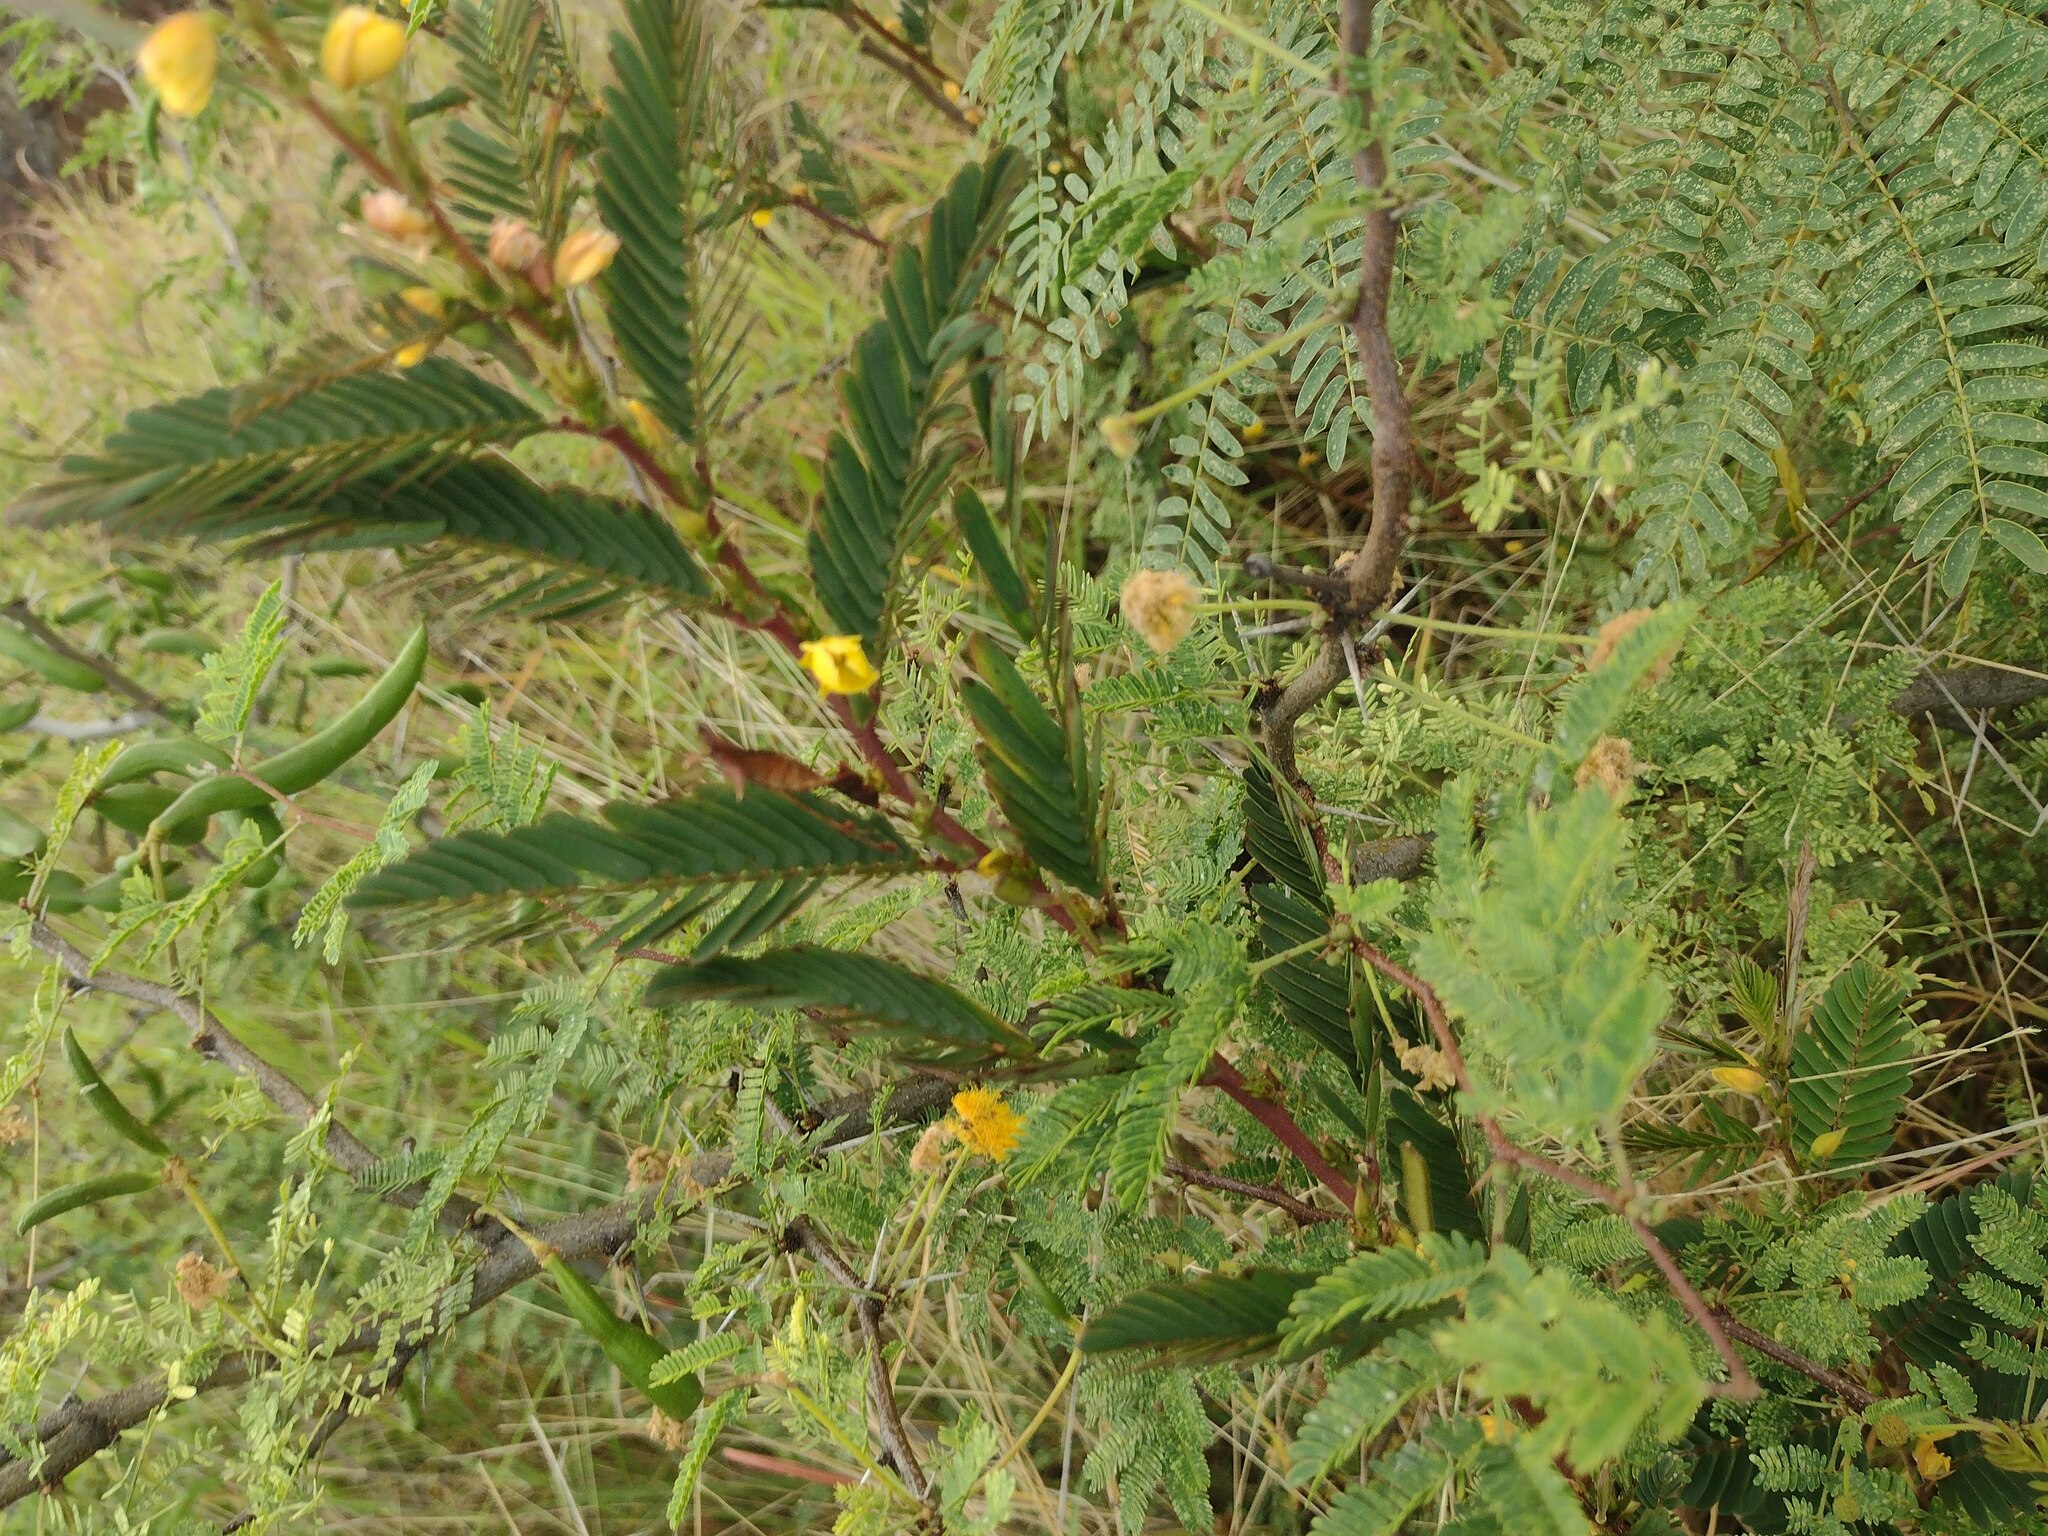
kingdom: Plantae
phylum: Tracheophyta
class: Magnoliopsida
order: Fabales
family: Fabaceae
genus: Chamaecrista
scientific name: Chamaecrista nictitans
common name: Sensitive cassia
